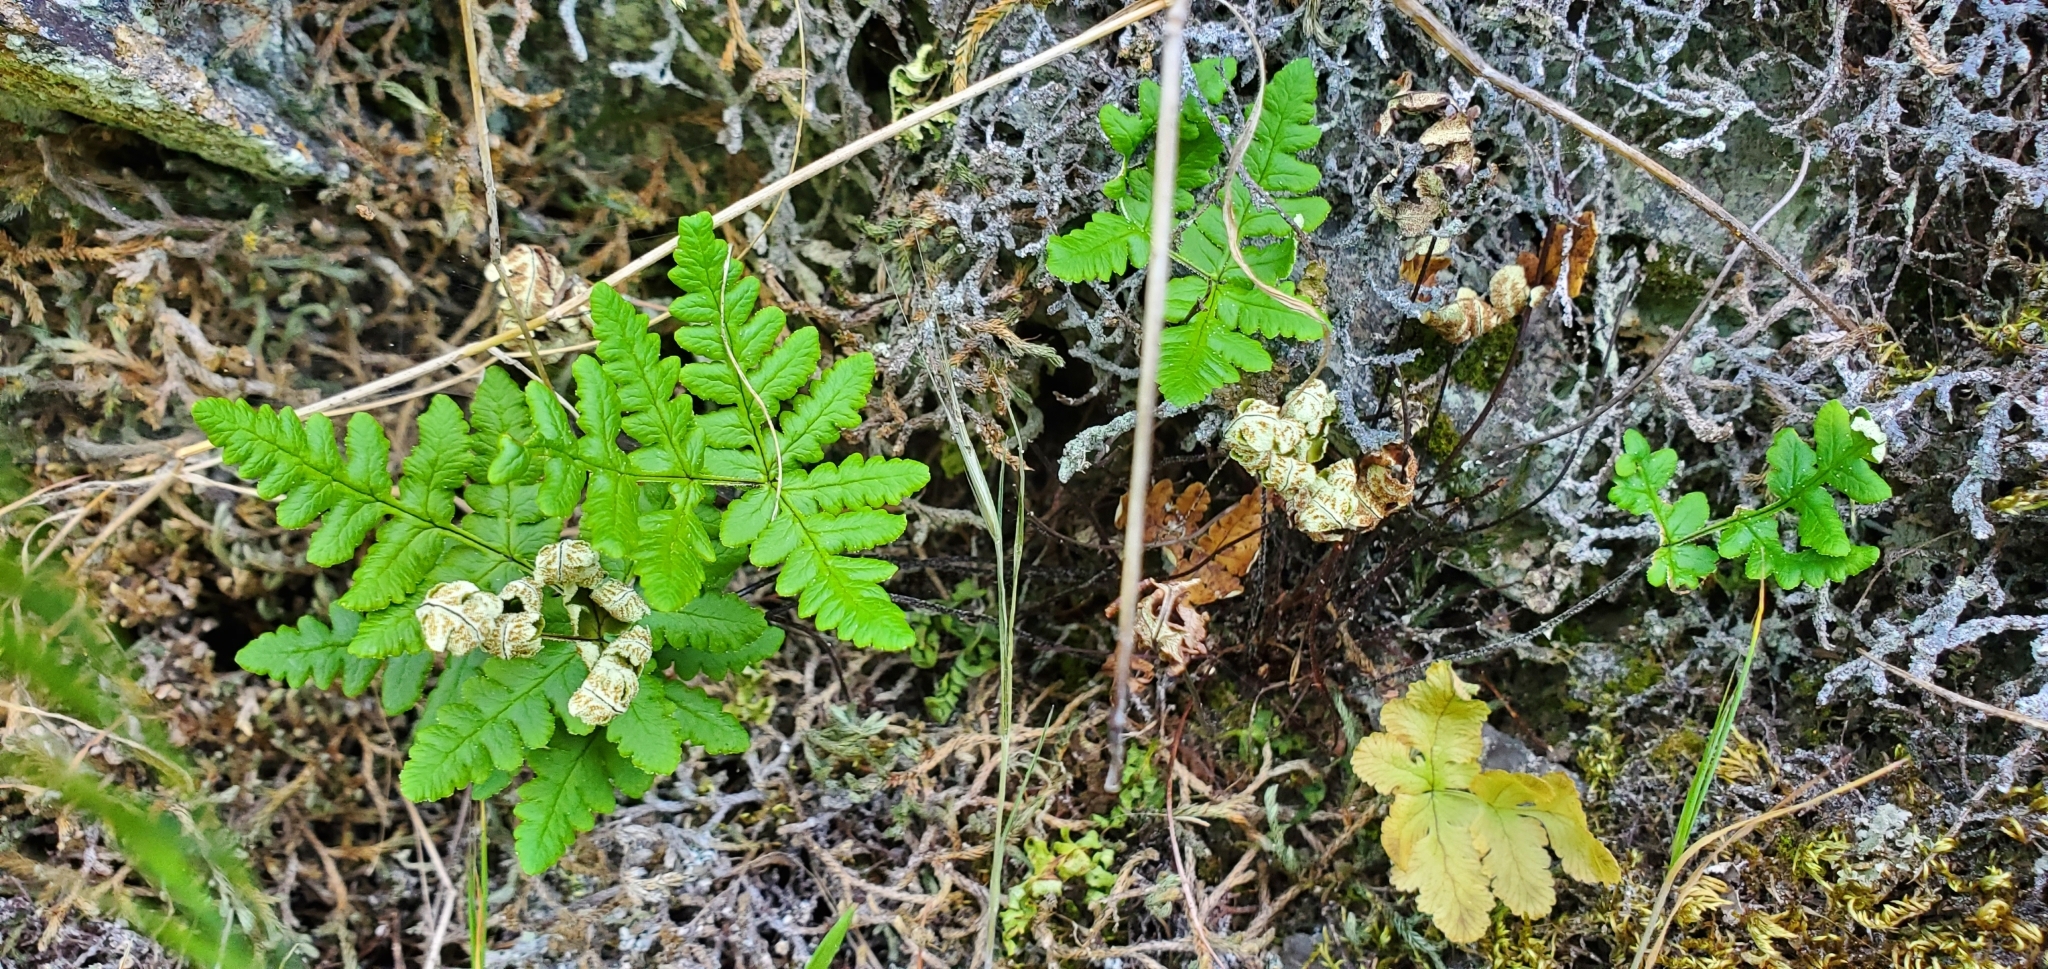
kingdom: Plantae
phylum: Tracheophyta
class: Polypodiopsida
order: Polypodiales
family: Pteridaceae
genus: Pentagramma
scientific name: Pentagramma triangularis
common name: Gold fern
